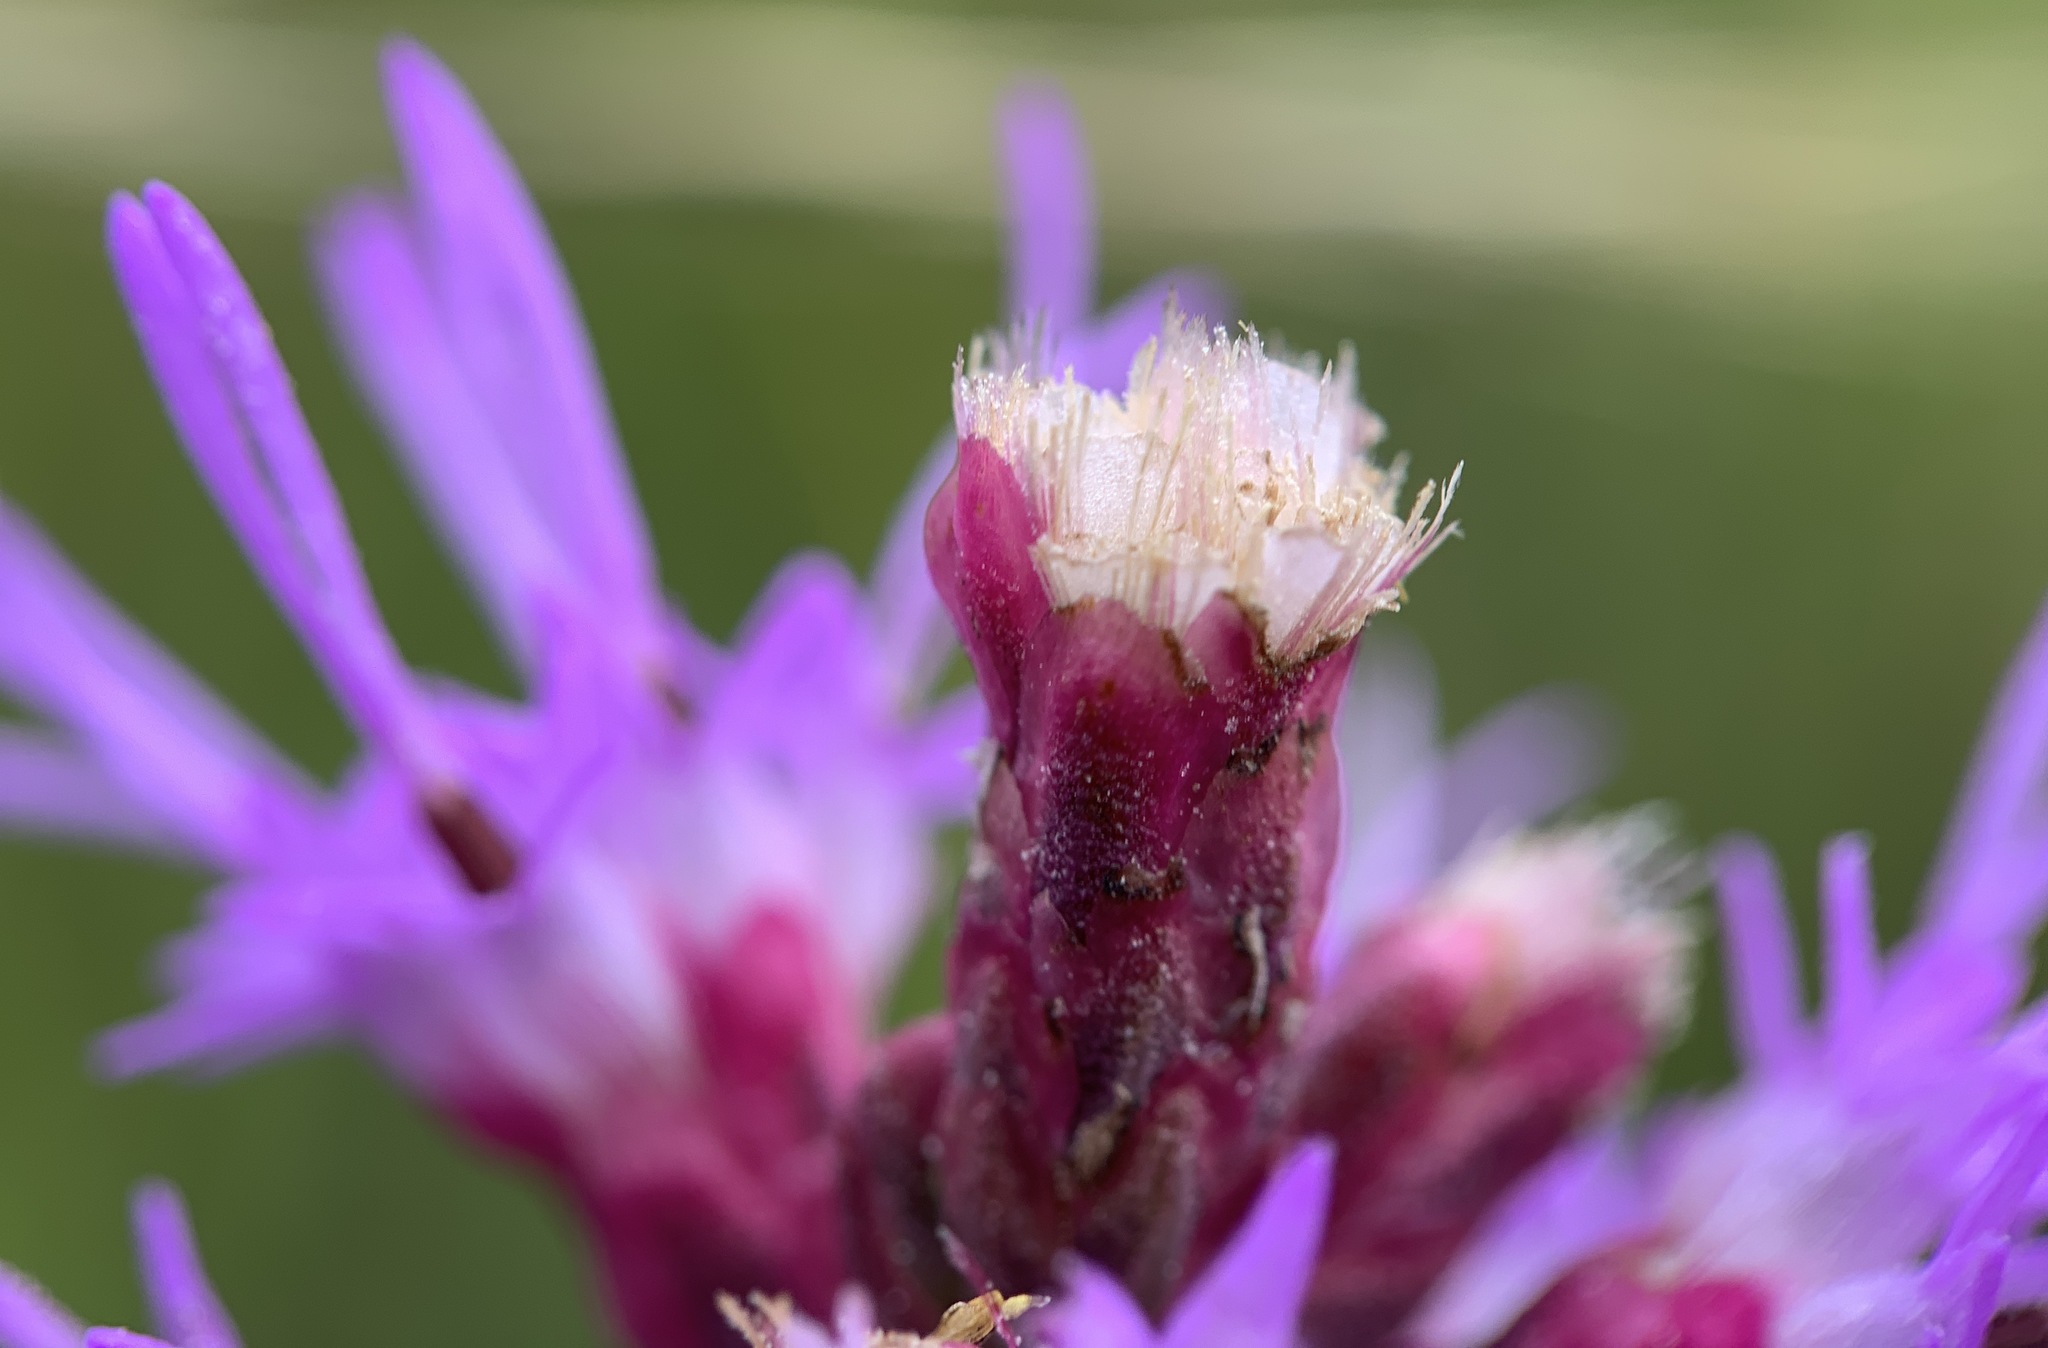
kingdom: Plantae
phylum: Tracheophyta
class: Magnoliopsida
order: Asterales
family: Asteraceae
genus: Liatris
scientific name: Liatris spicata
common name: Florist gayfeather
